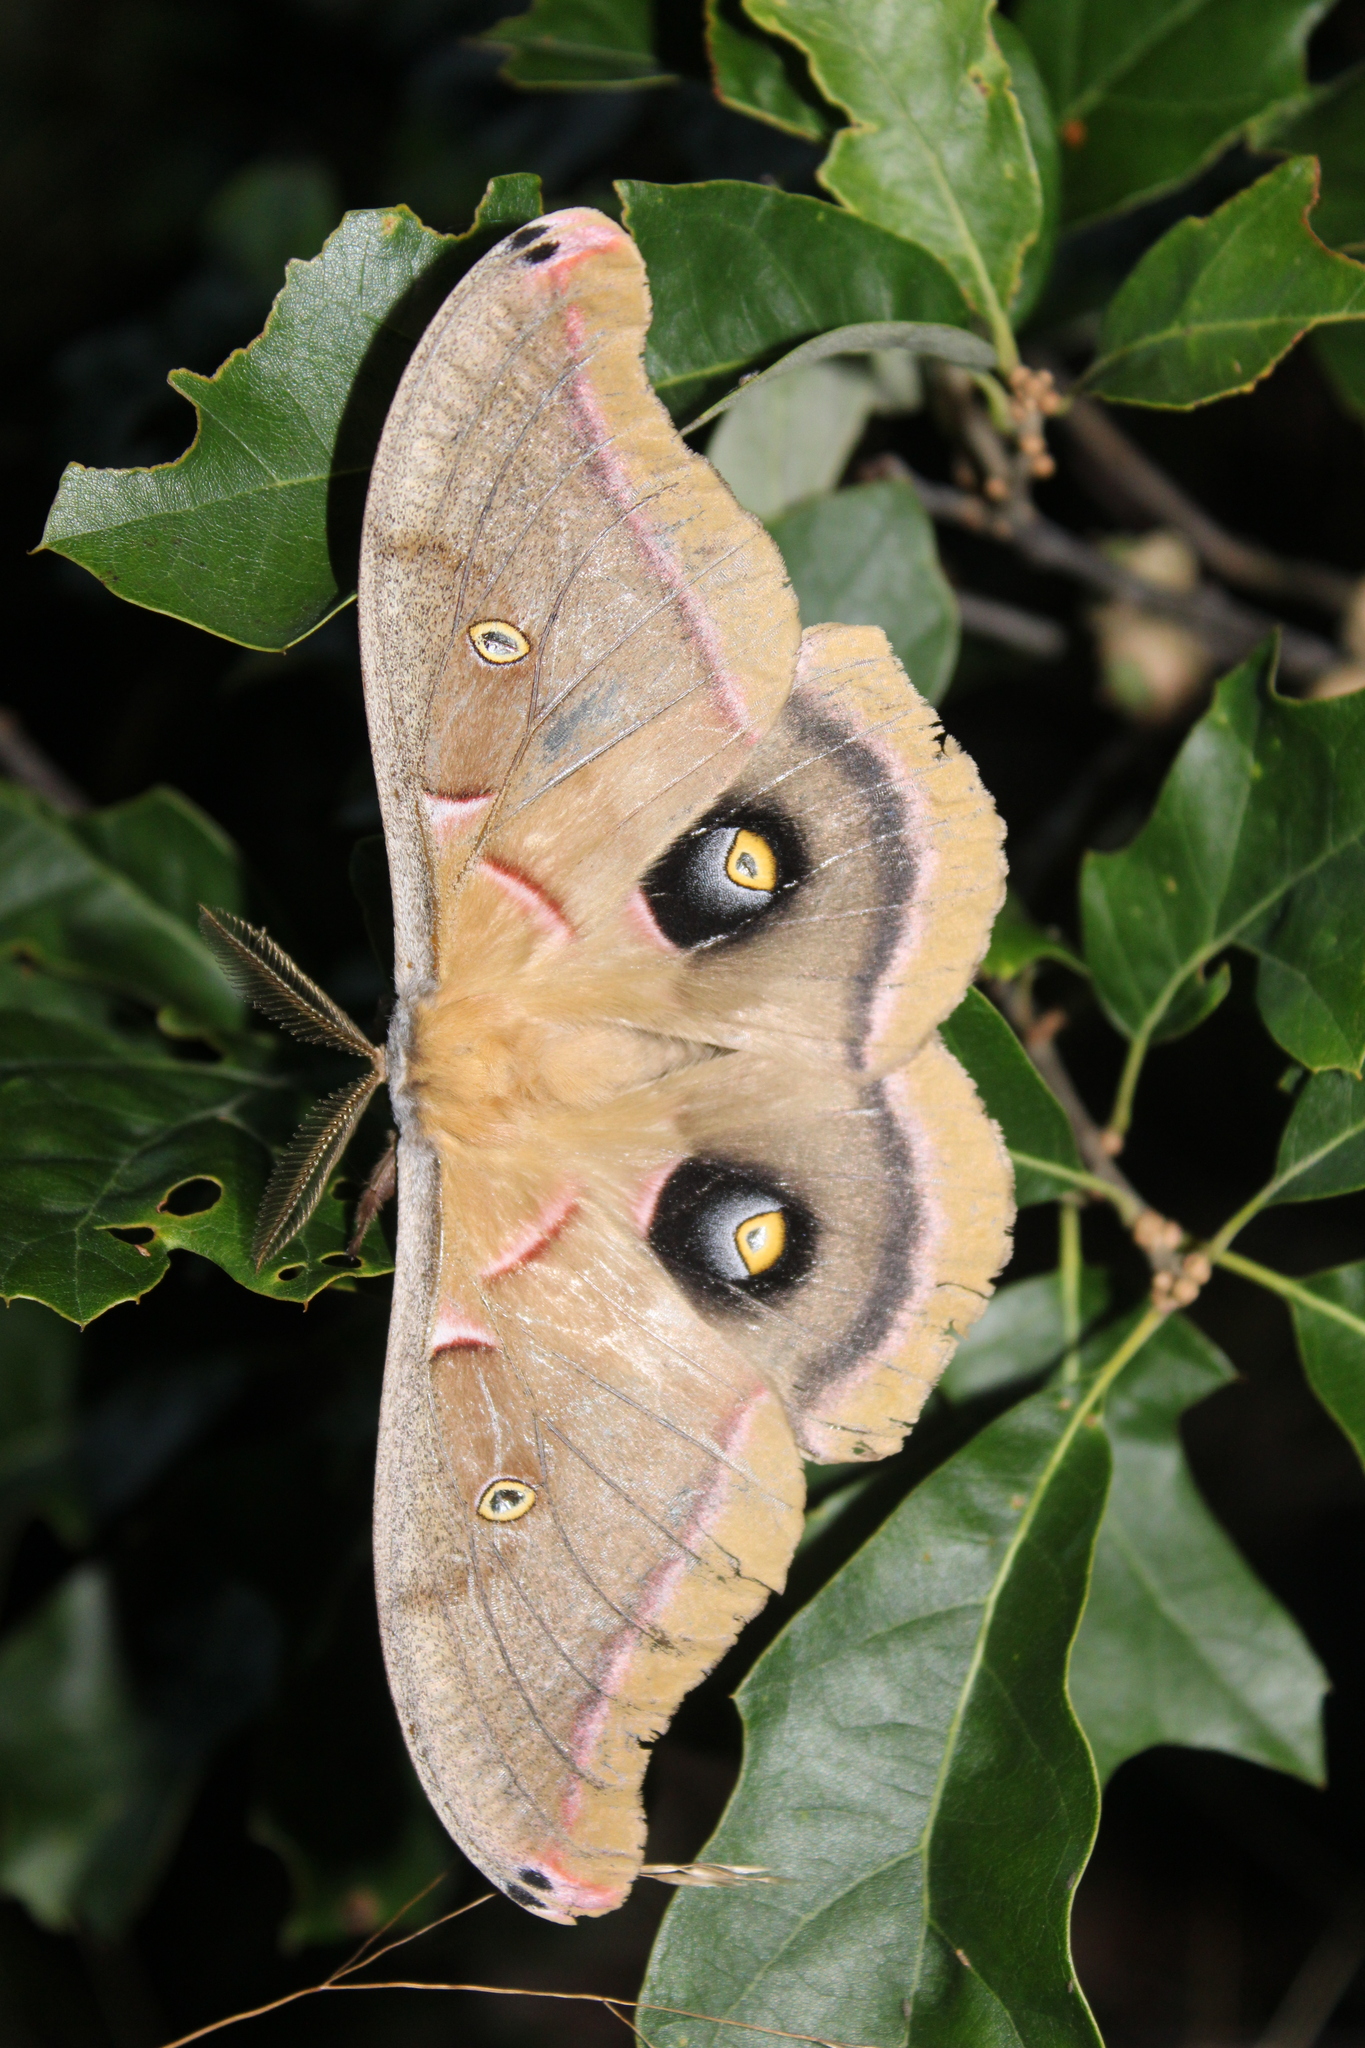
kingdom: Animalia
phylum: Arthropoda
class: Insecta
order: Lepidoptera
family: Saturniidae
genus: Antheraea
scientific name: Antheraea polyphemus
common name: Polyphemus moth
